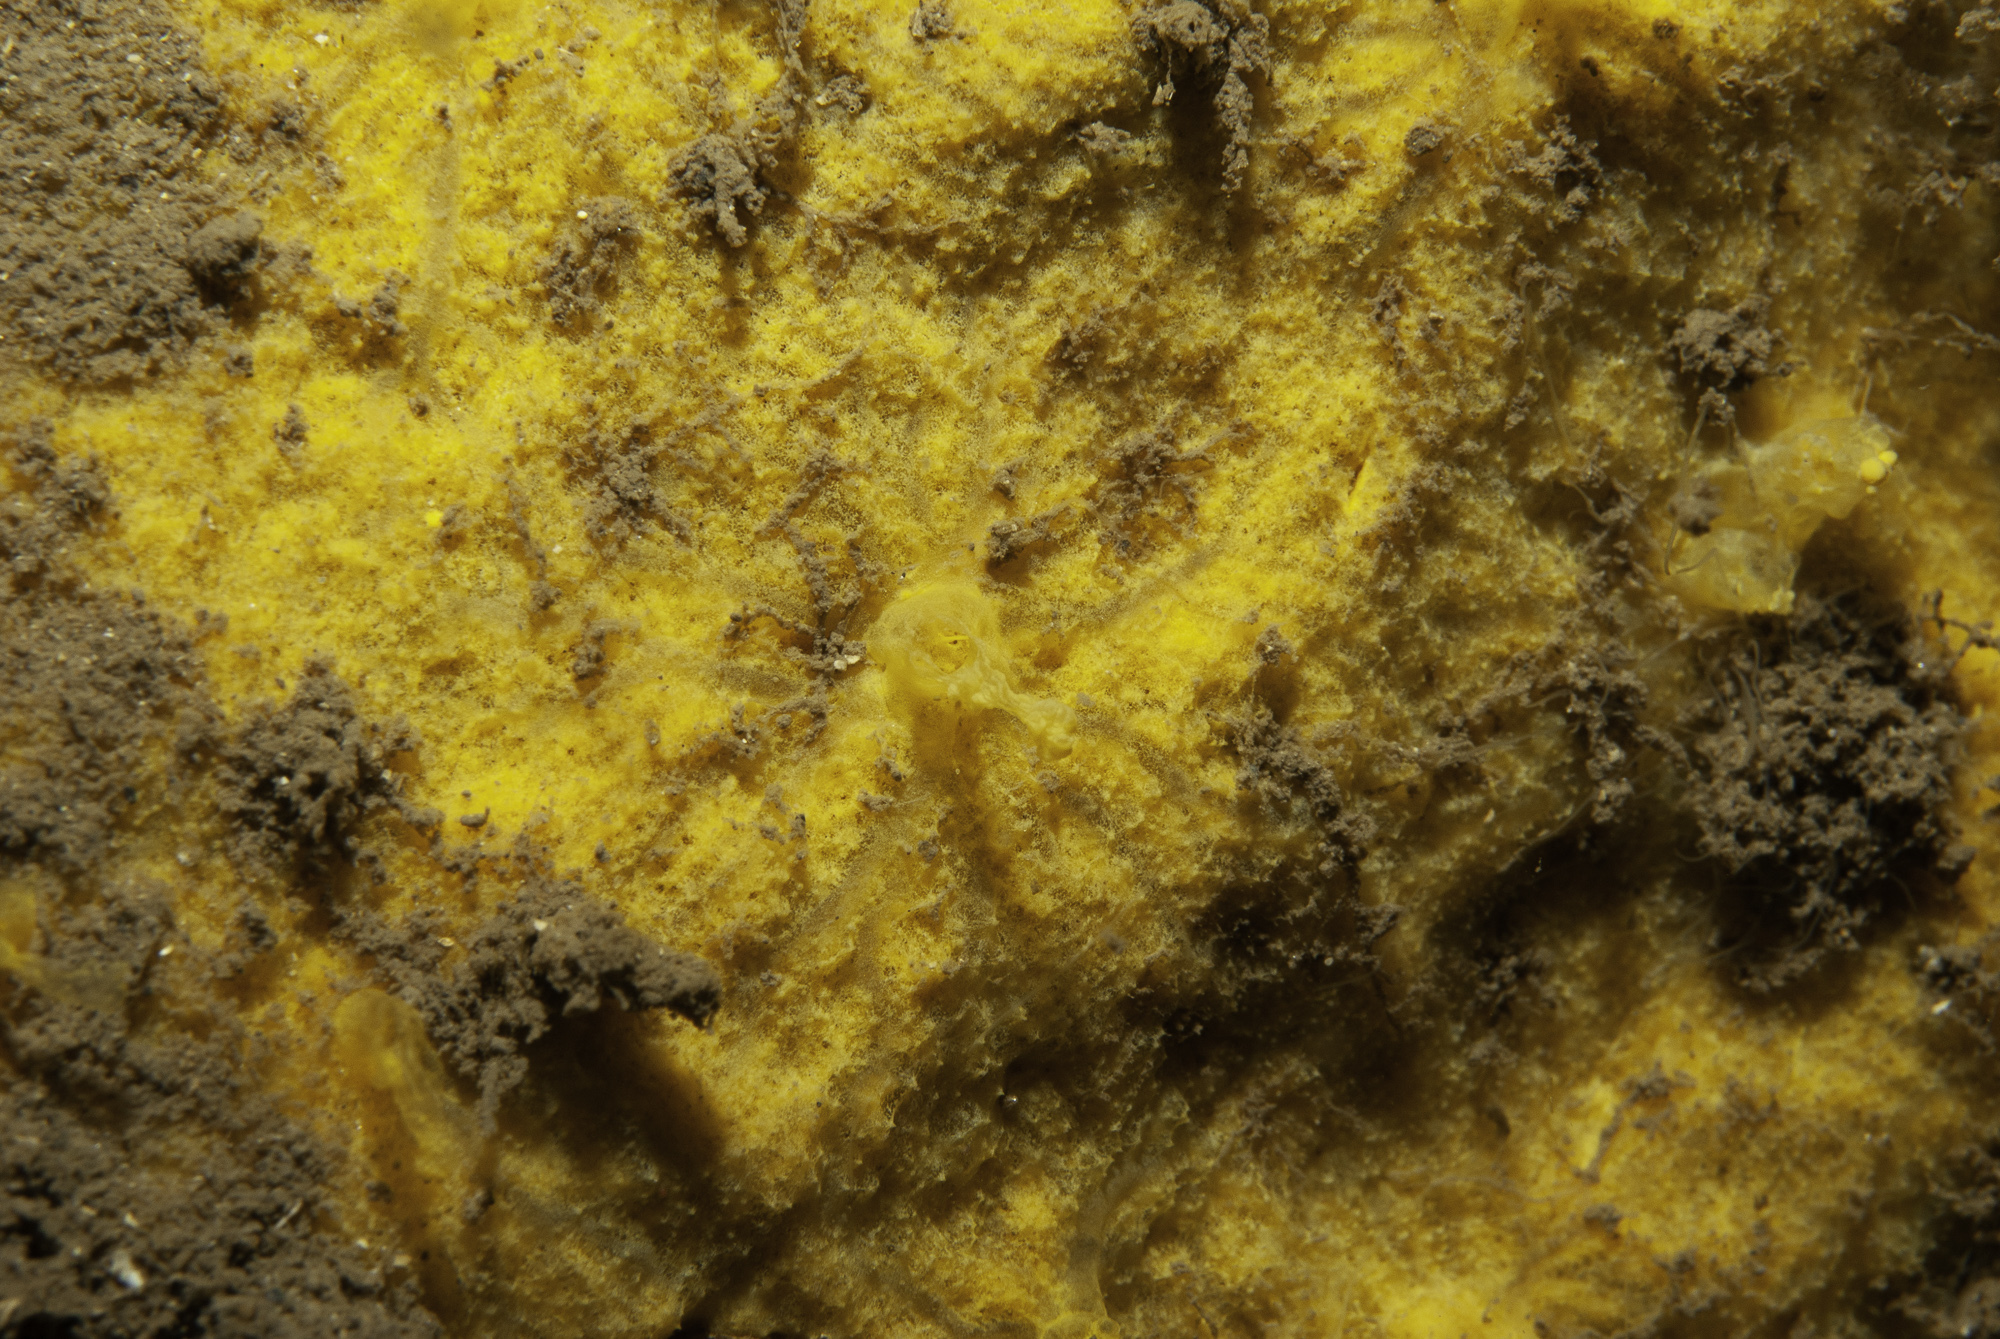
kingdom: Animalia
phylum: Porifera
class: Demospongiae
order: Agelasida
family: Hymerhabdiidae
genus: Hymerhabdia
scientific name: Hymerhabdia typica
